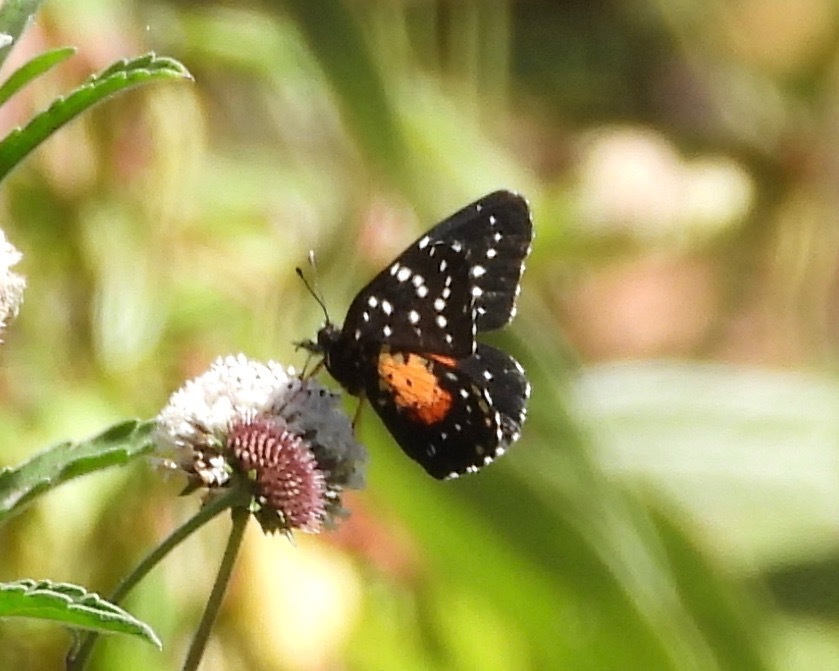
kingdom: Animalia
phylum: Arthropoda
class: Insecta
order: Lepidoptera
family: Nymphalidae
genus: Chlosyne
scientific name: Chlosyne janais
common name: Crimson patch
